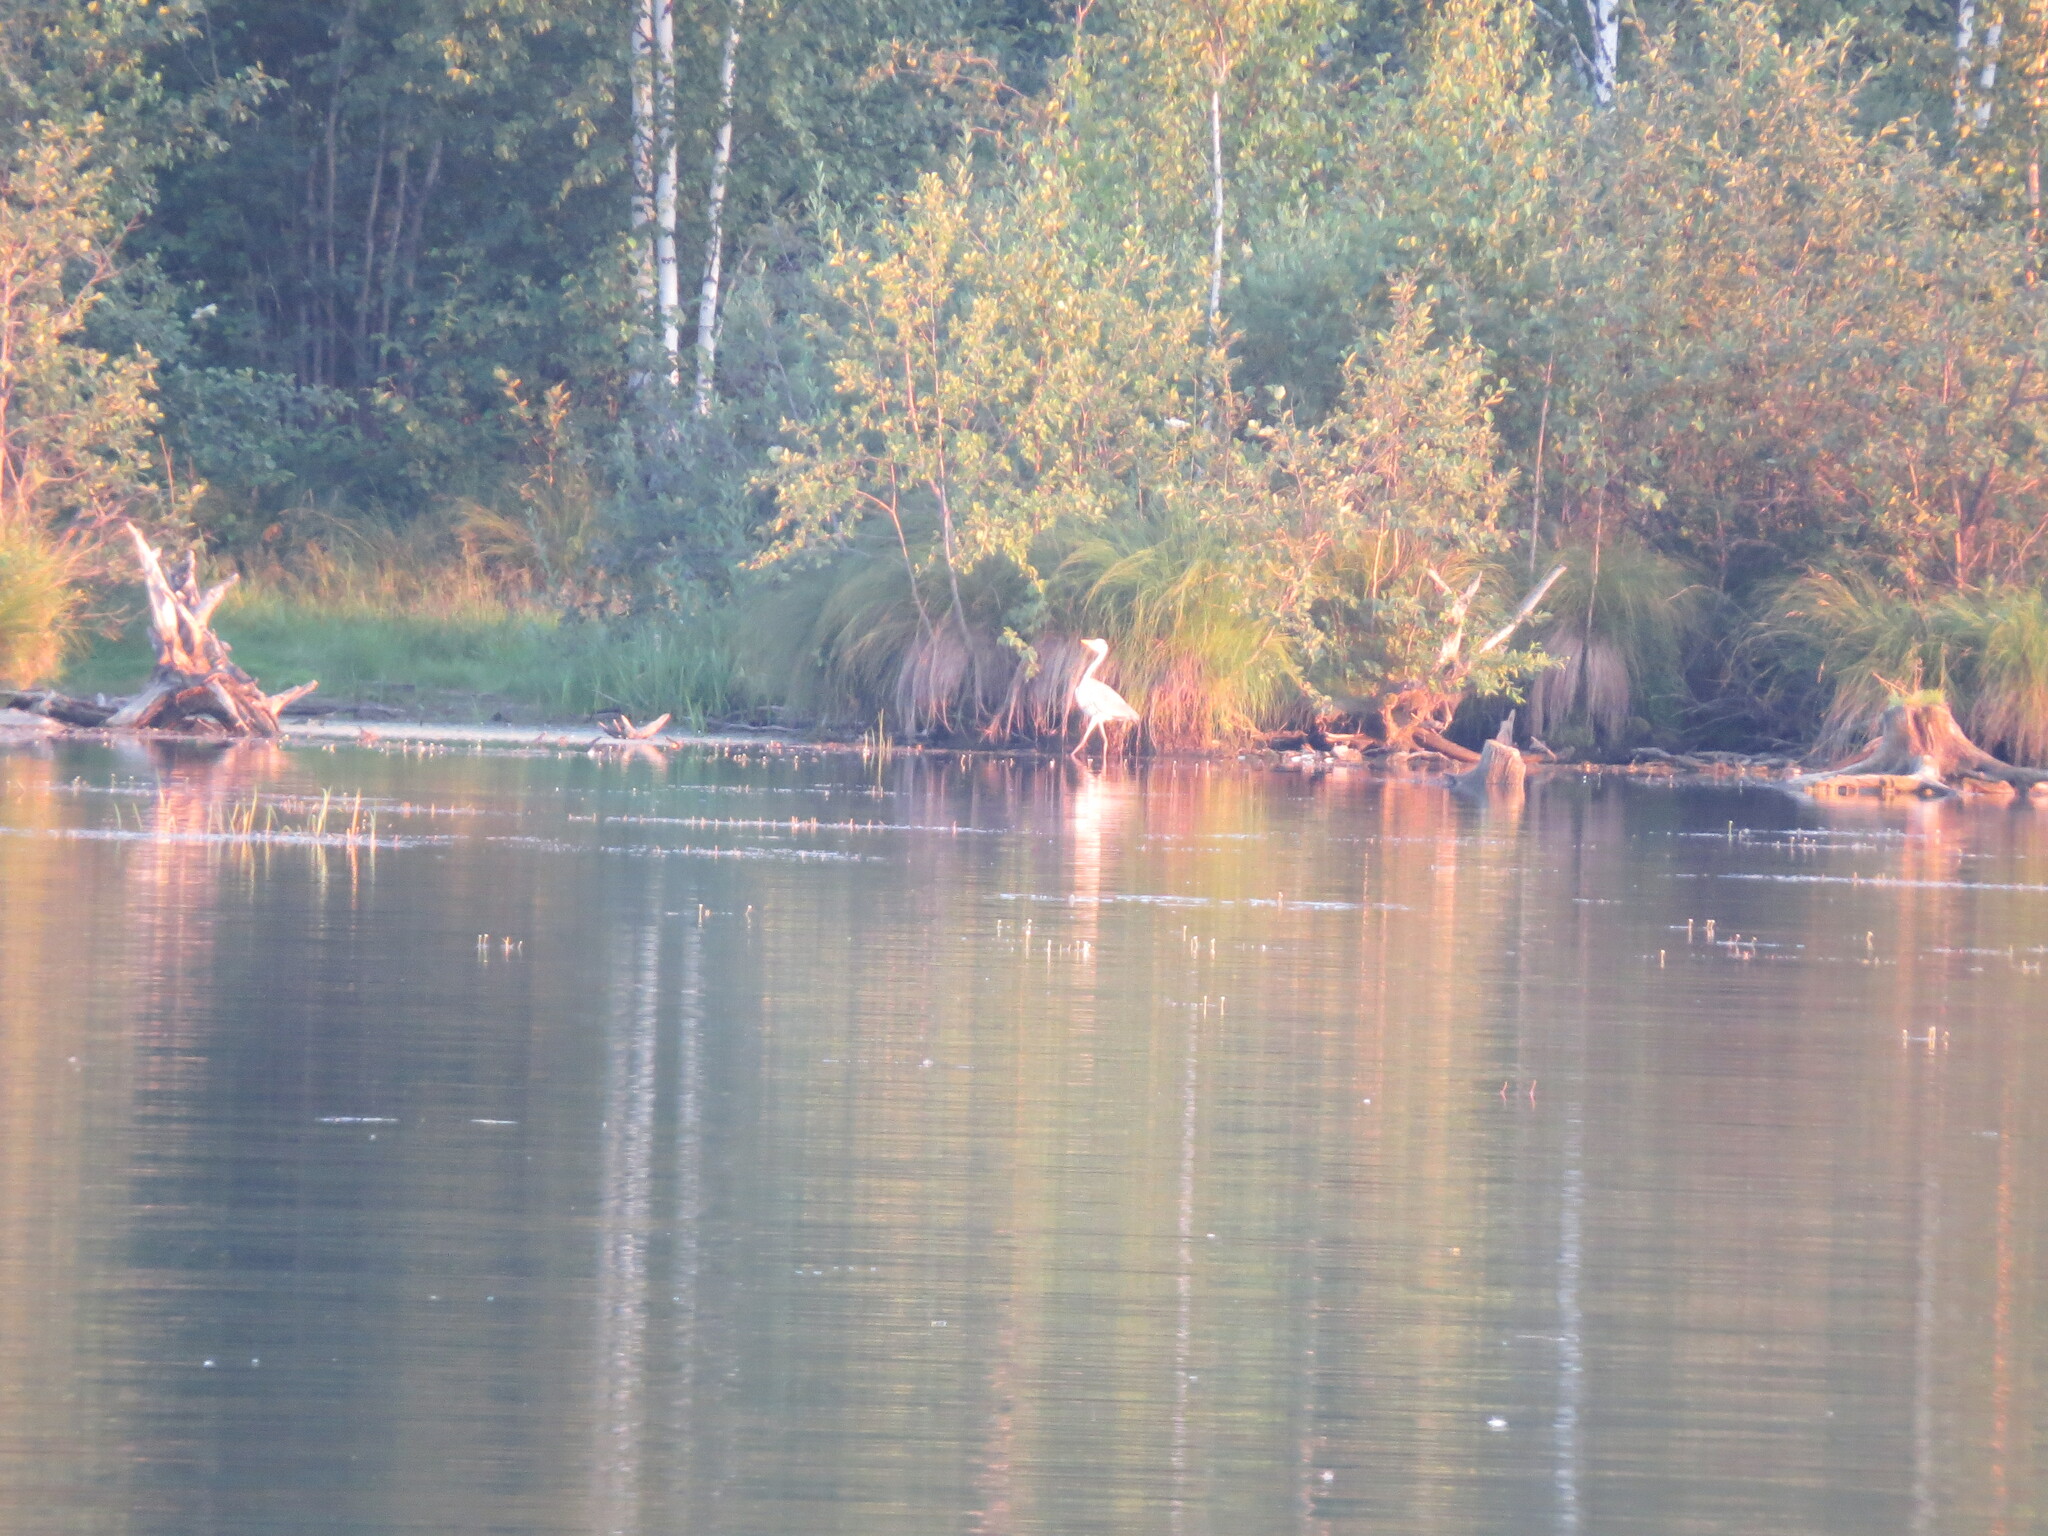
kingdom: Animalia
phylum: Chordata
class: Aves
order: Pelecaniformes
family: Ardeidae
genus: Ardea
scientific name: Ardea cinerea
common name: Grey heron
